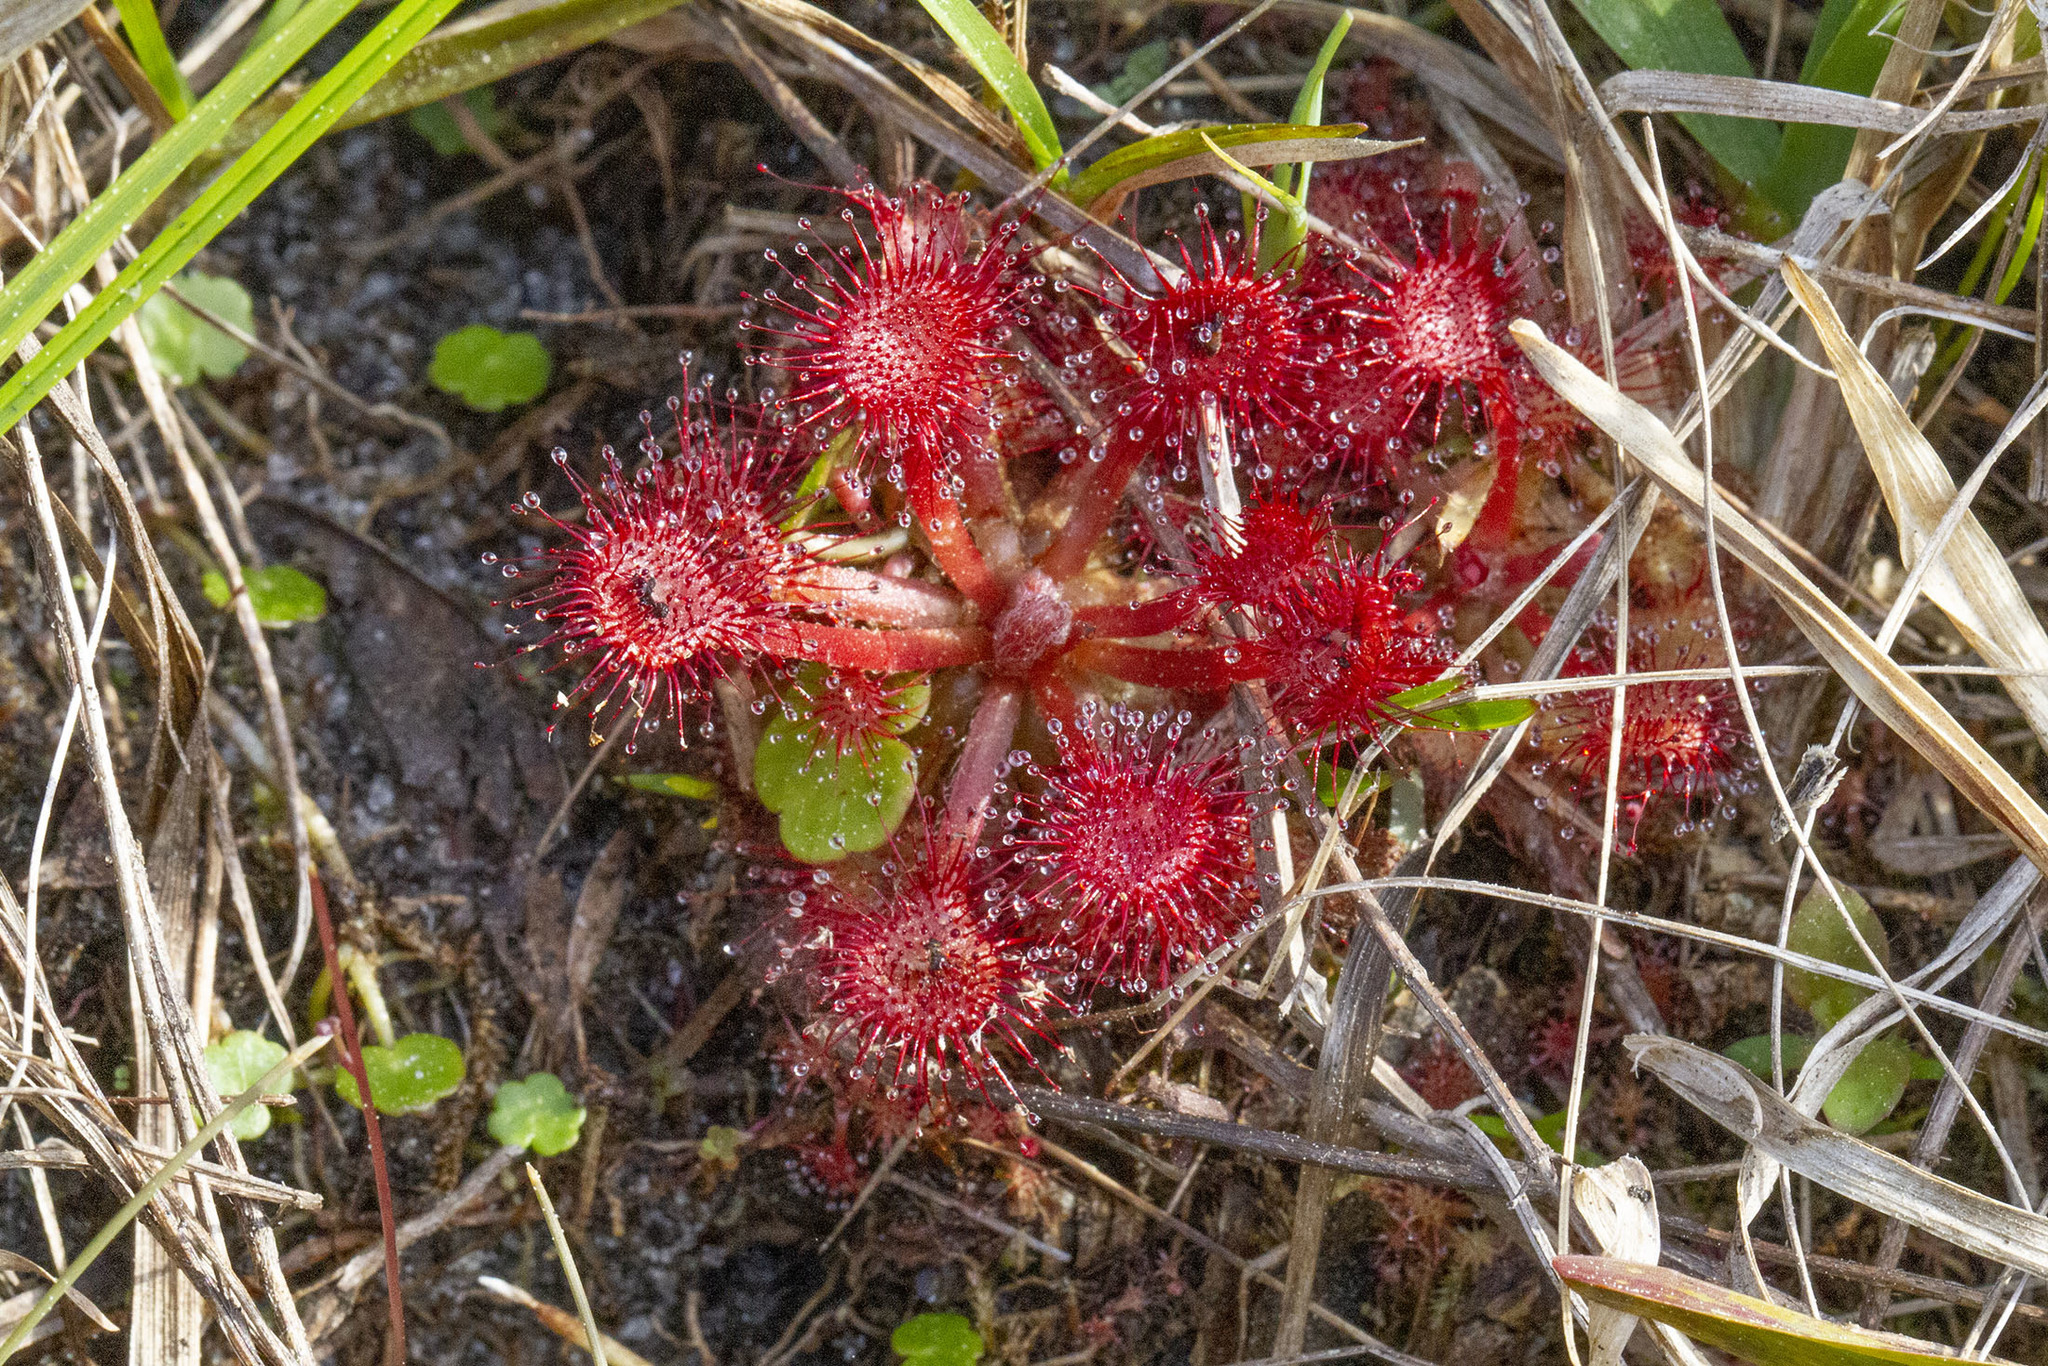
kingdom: Plantae
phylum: Tracheophyta
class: Magnoliopsida
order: Caryophyllales
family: Droseraceae
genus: Drosera
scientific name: Drosera capillaris
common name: Pink sundew
